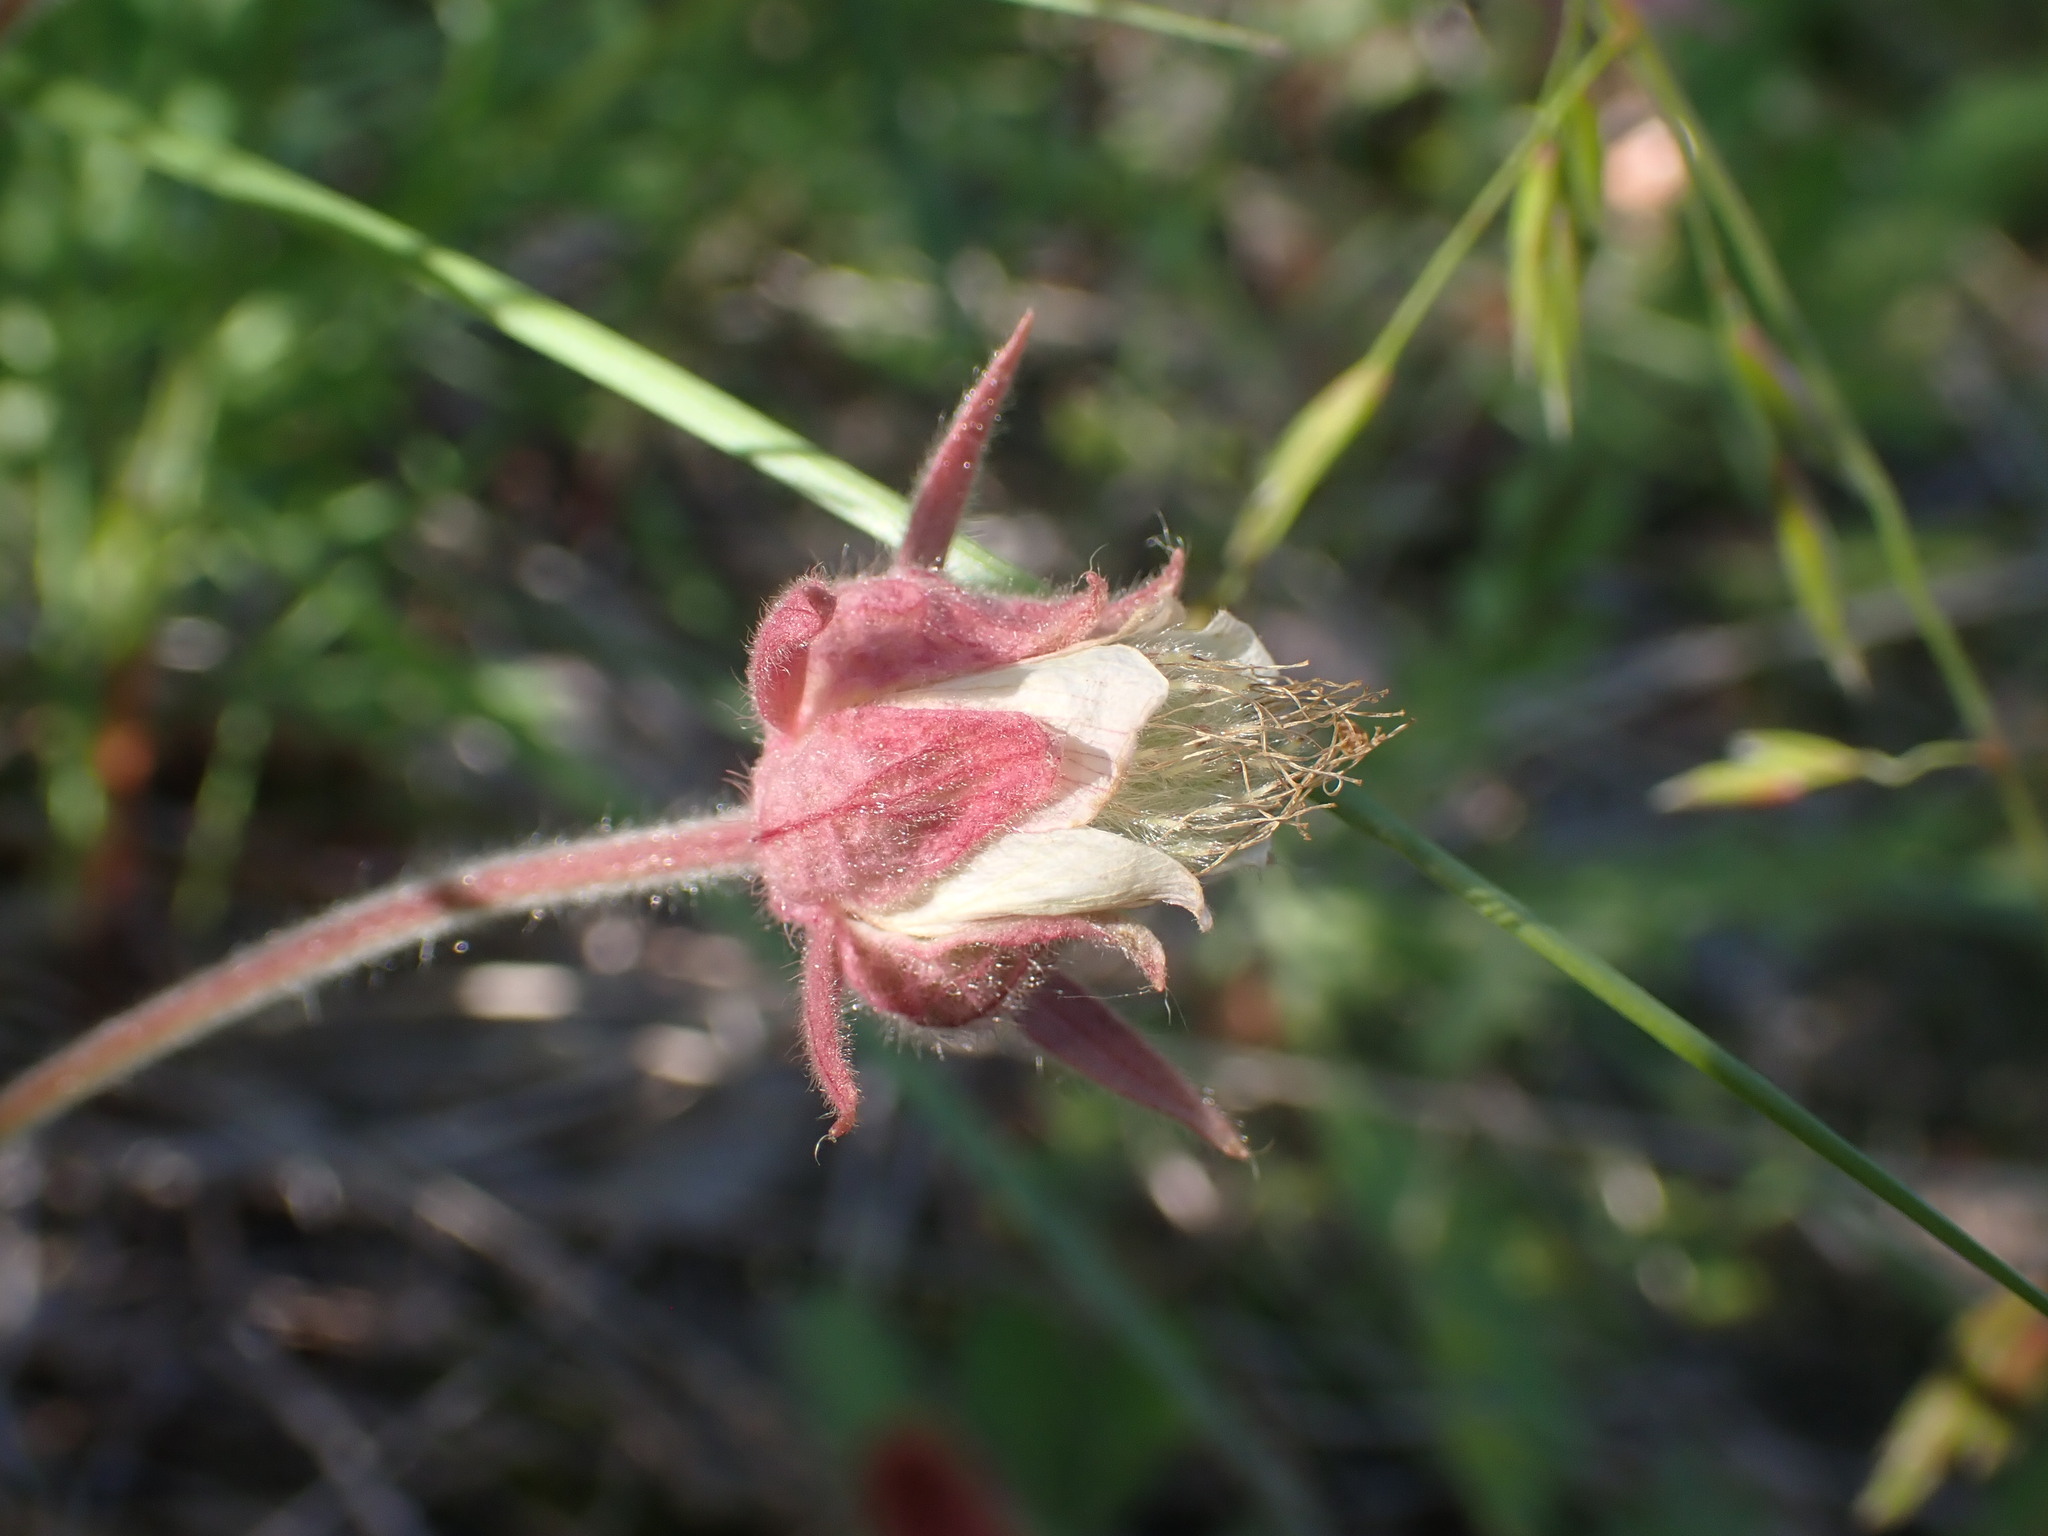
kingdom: Plantae
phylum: Tracheophyta
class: Magnoliopsida
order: Rosales
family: Rosaceae
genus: Geum
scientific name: Geum triflorum
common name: Old man's whiskers
